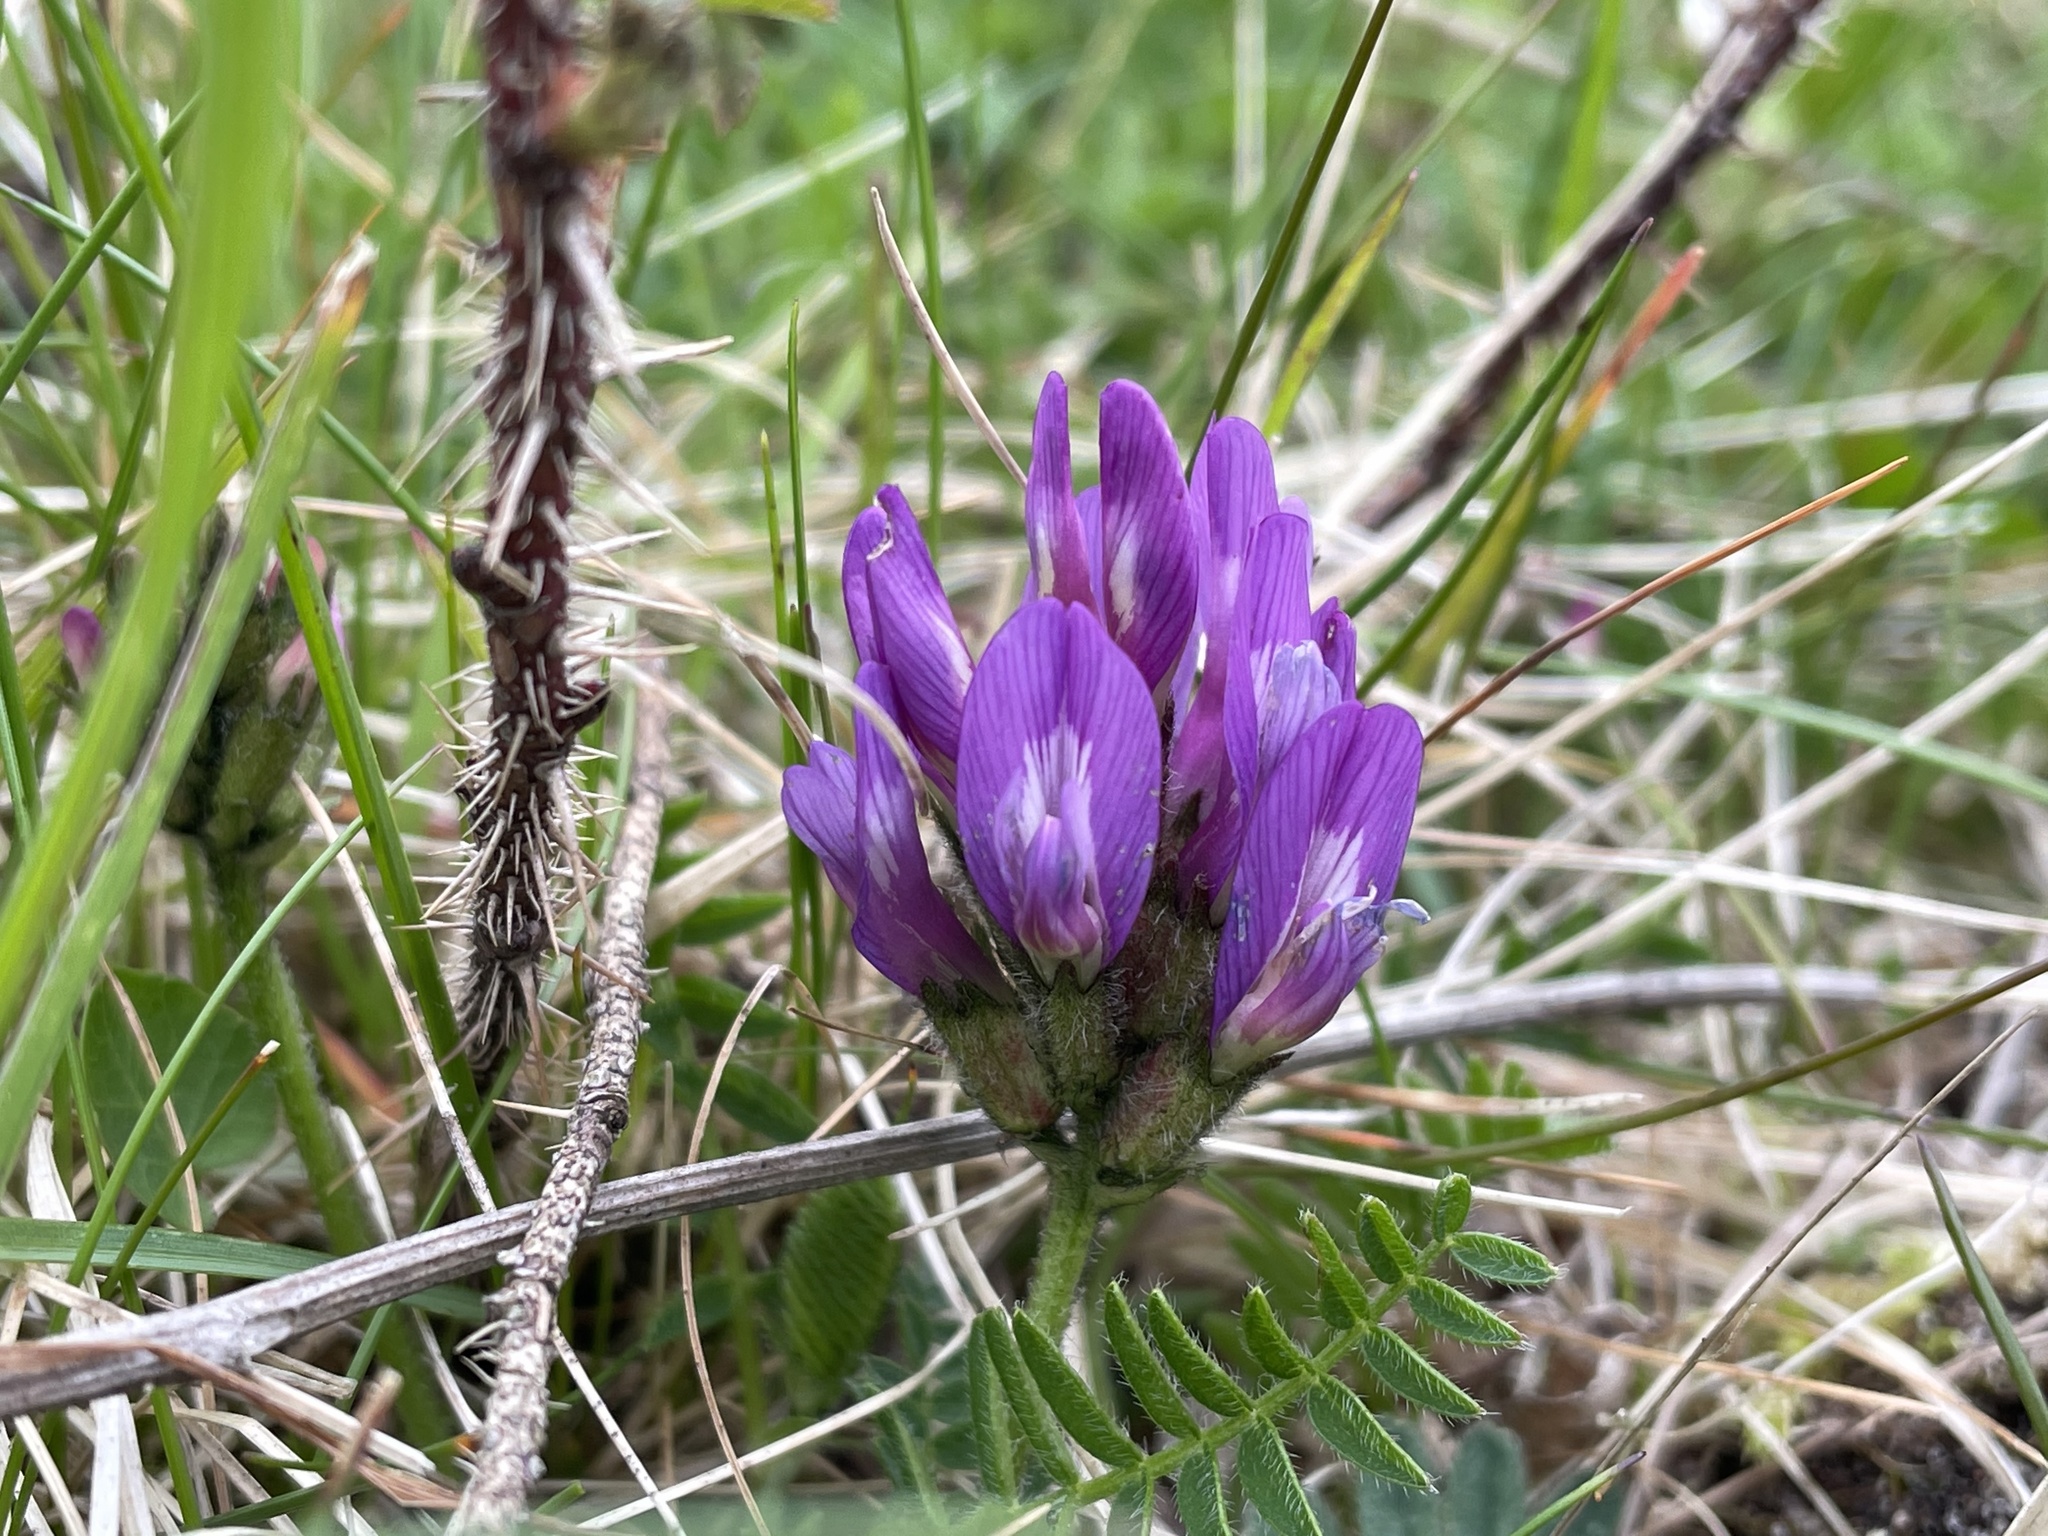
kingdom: Plantae
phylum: Tracheophyta
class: Magnoliopsida
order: Fabales
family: Fabaceae
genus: Astragalus
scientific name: Astragalus danicus
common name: Purple milk-vetch
